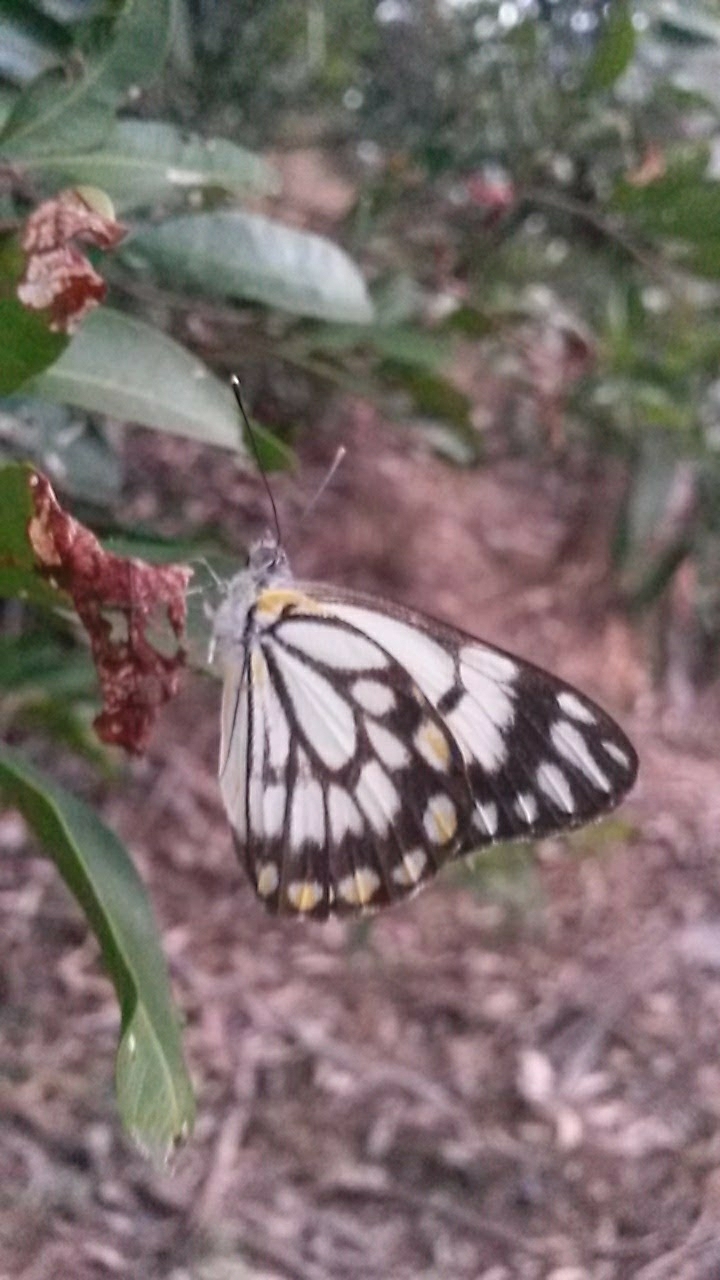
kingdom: Animalia
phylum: Arthropoda
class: Insecta
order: Lepidoptera
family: Pieridae
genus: Belenois
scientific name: Belenois java
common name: Caper white
